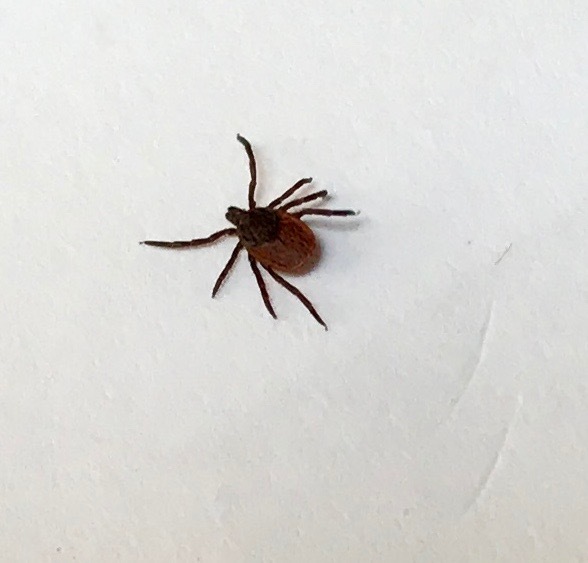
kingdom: Animalia
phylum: Arthropoda
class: Arachnida
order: Ixodida
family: Ixodidae
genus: Ixodes
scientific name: Ixodes pacificus
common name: California black-legged tick
